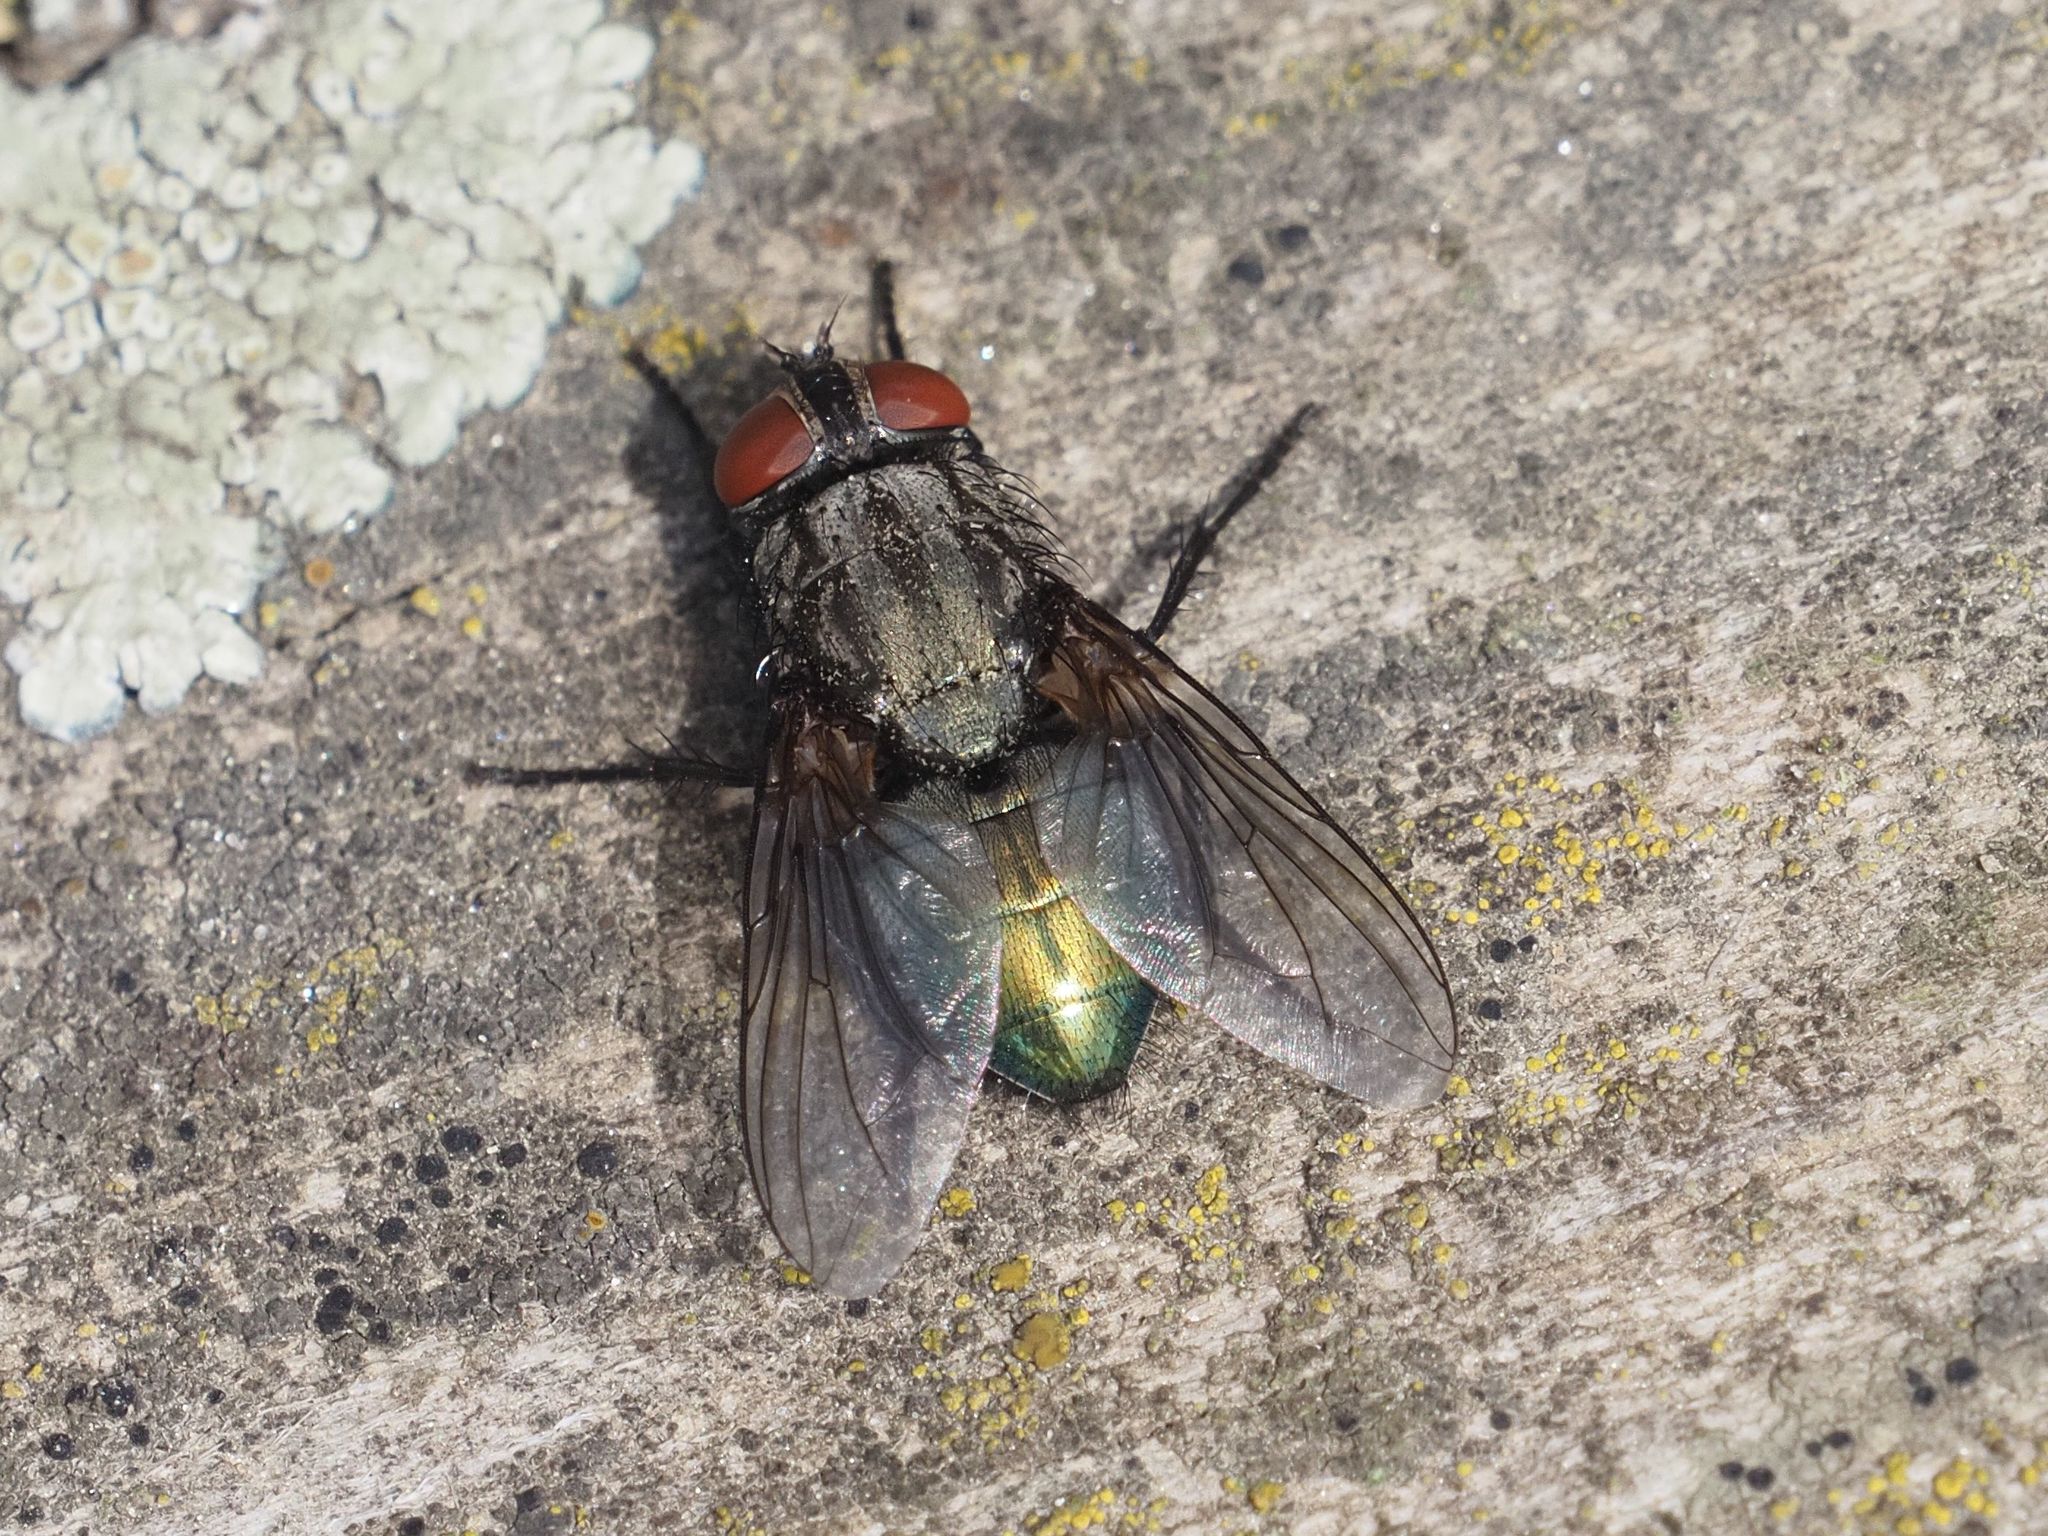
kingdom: Animalia
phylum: Arthropoda
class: Insecta
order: Diptera
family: Calliphoridae
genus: Protocalliphora
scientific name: Protocalliphora azurea
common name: Bird blowfly
